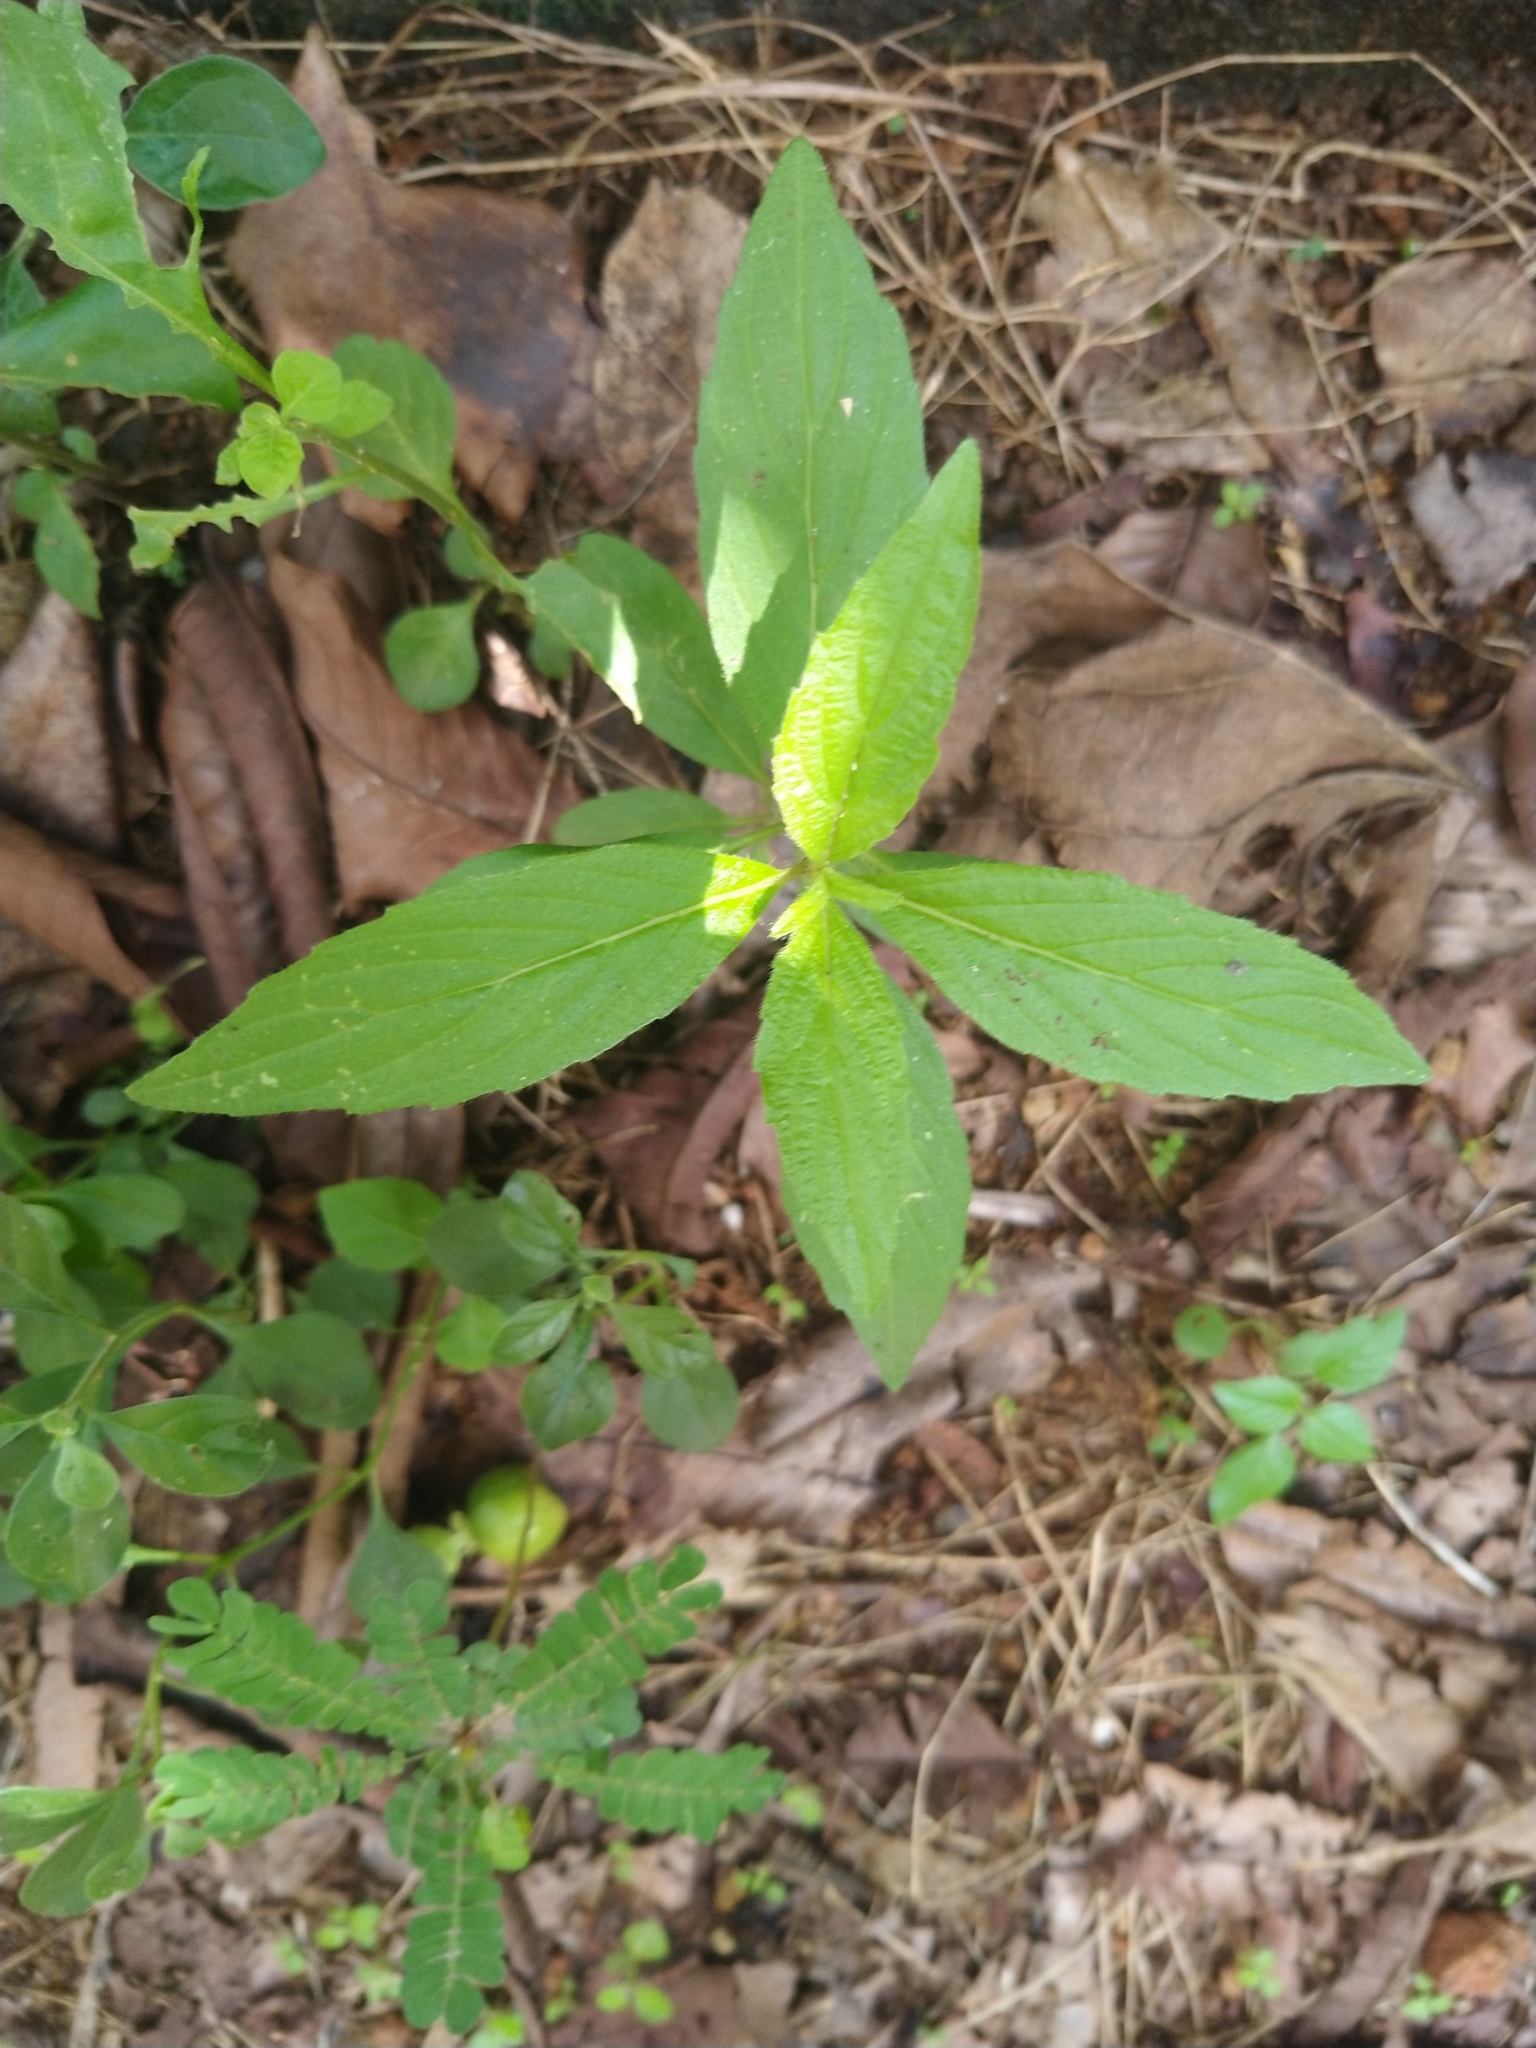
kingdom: Plantae
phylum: Tracheophyta
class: Magnoliopsida
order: Lamiales
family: Lamiaceae
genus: Leucas
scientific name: Leucas aspera
